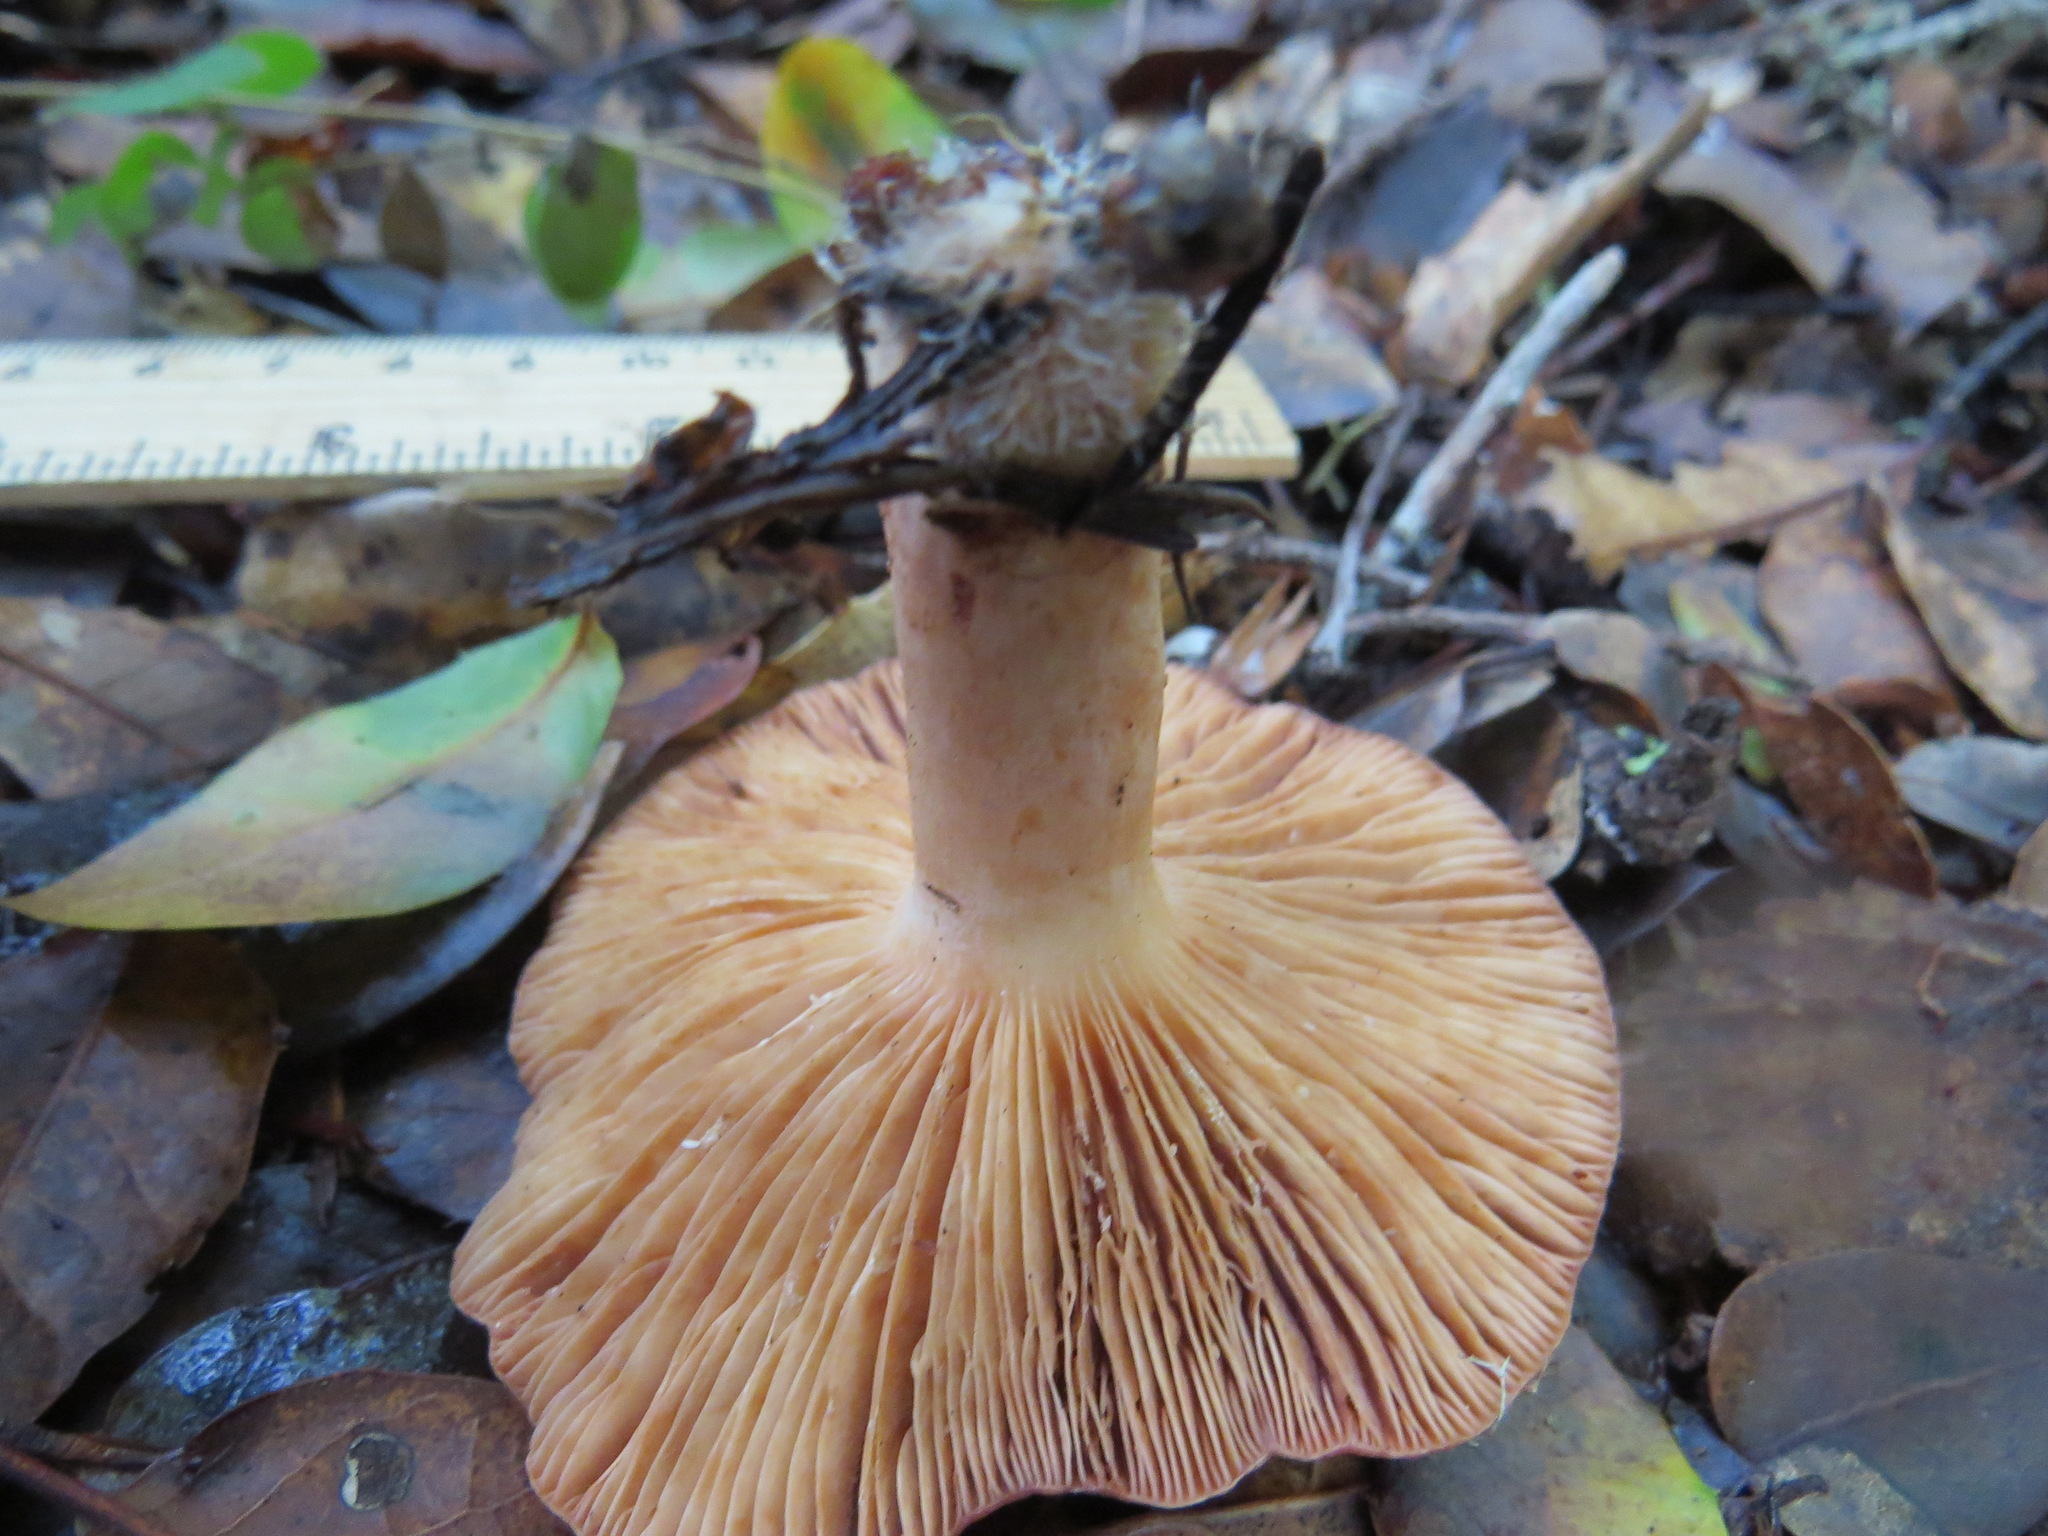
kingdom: Fungi
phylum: Basidiomycota
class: Agaricomycetes
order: Russulales
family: Russulaceae
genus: Lactarius
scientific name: Lactarius xanthogalactus
